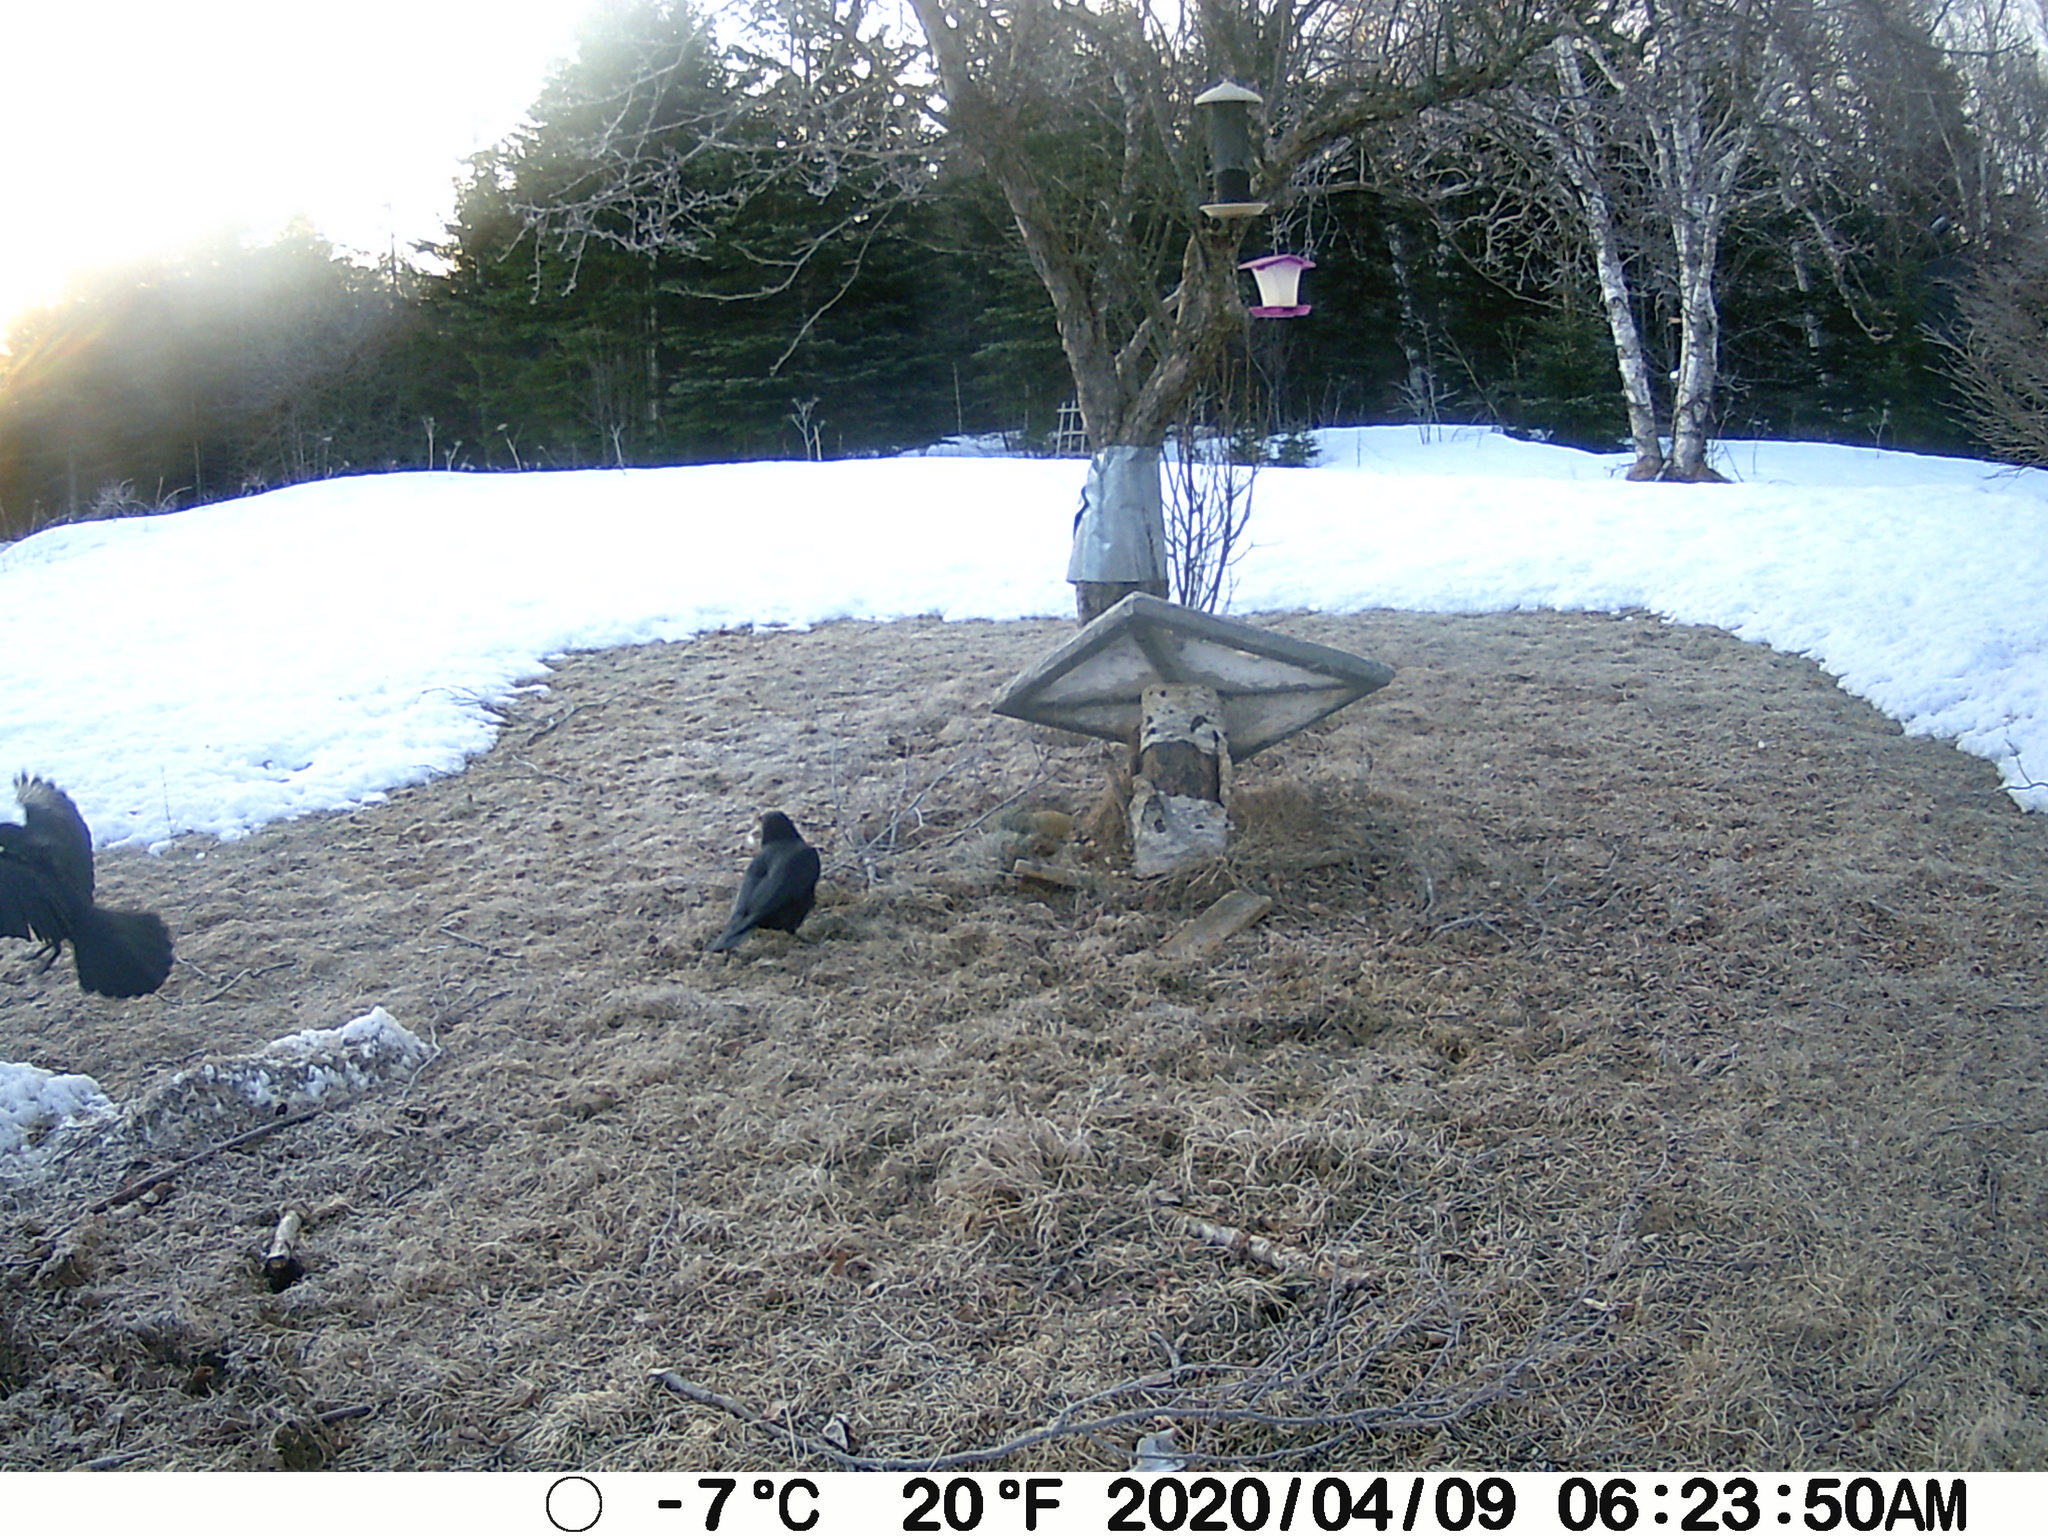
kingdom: Animalia
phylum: Chordata
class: Aves
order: Passeriformes
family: Corvidae
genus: Corvus
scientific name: Corvus brachyrhynchos
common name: American crow
